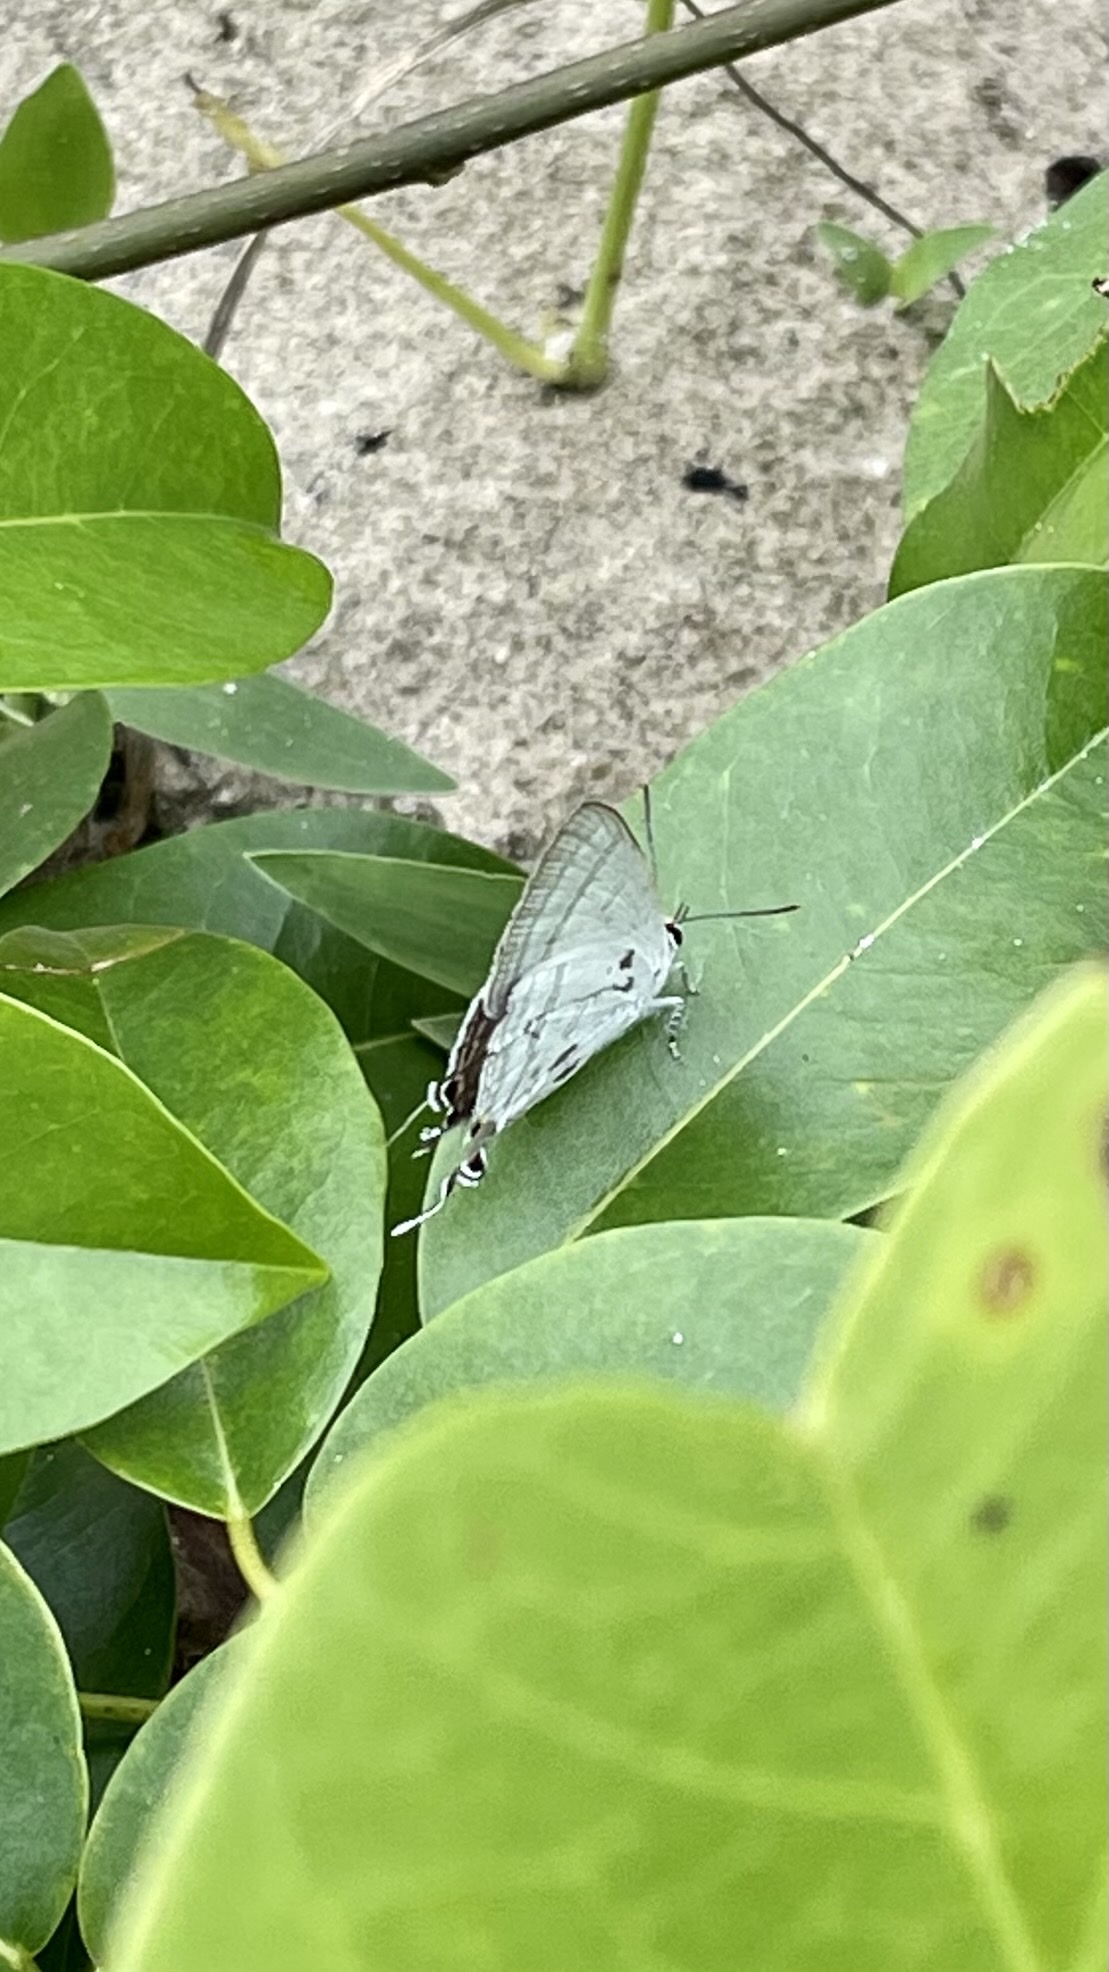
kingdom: Animalia
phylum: Arthropoda
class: Insecta
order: Lepidoptera
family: Lycaenidae
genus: Hypolycaena
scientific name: Hypolycaena phorbas
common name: Black-spotted flash
